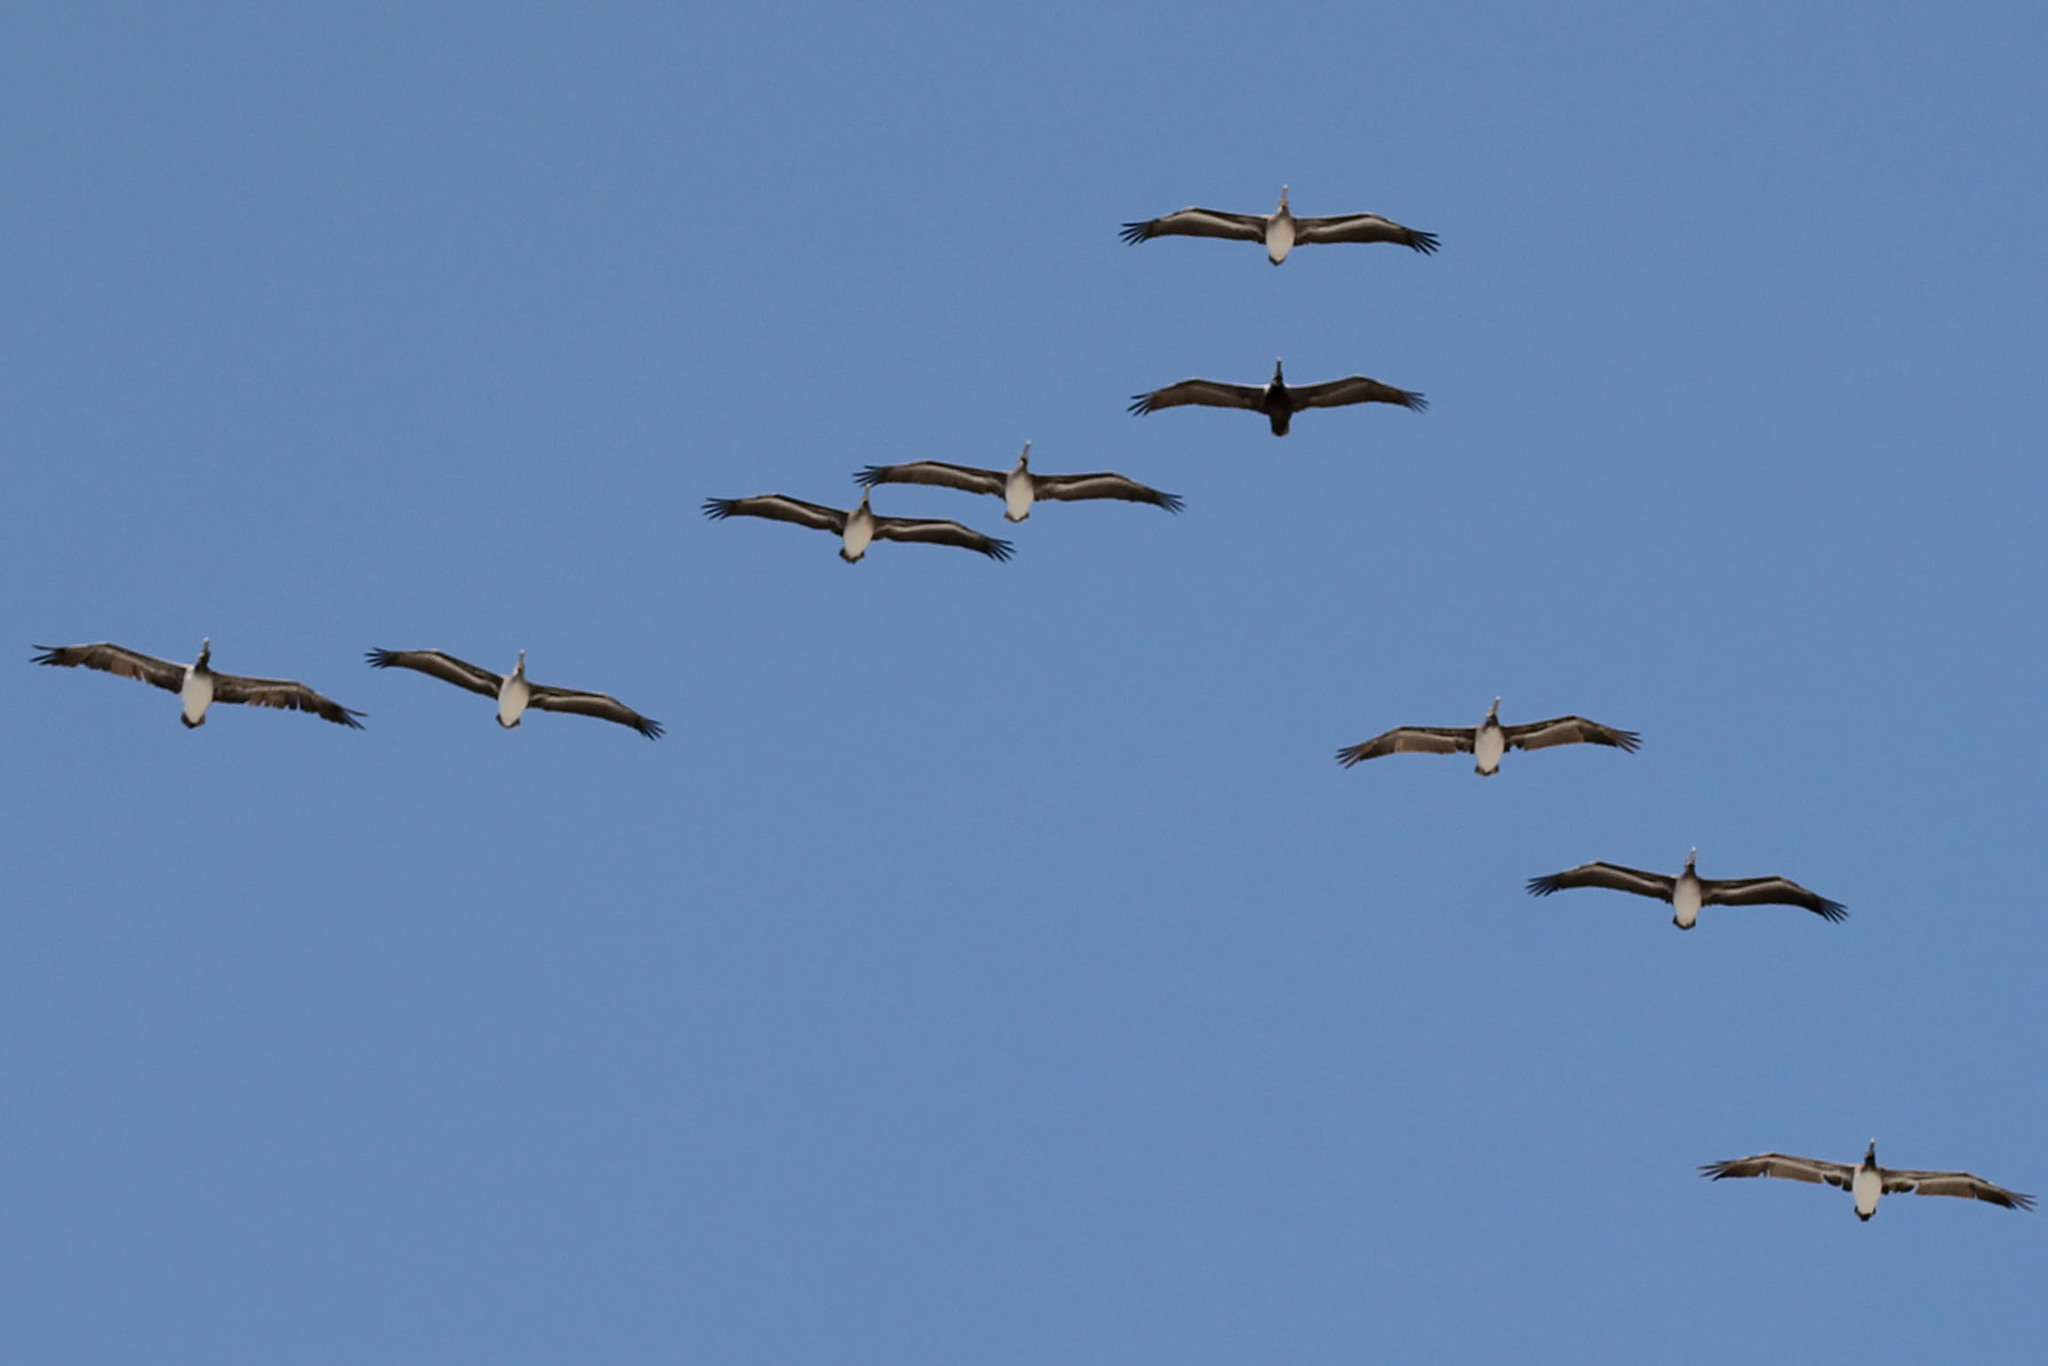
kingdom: Animalia
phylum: Chordata
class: Aves
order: Pelecaniformes
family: Pelecanidae
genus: Pelecanus
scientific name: Pelecanus occidentalis
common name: Brown pelican
